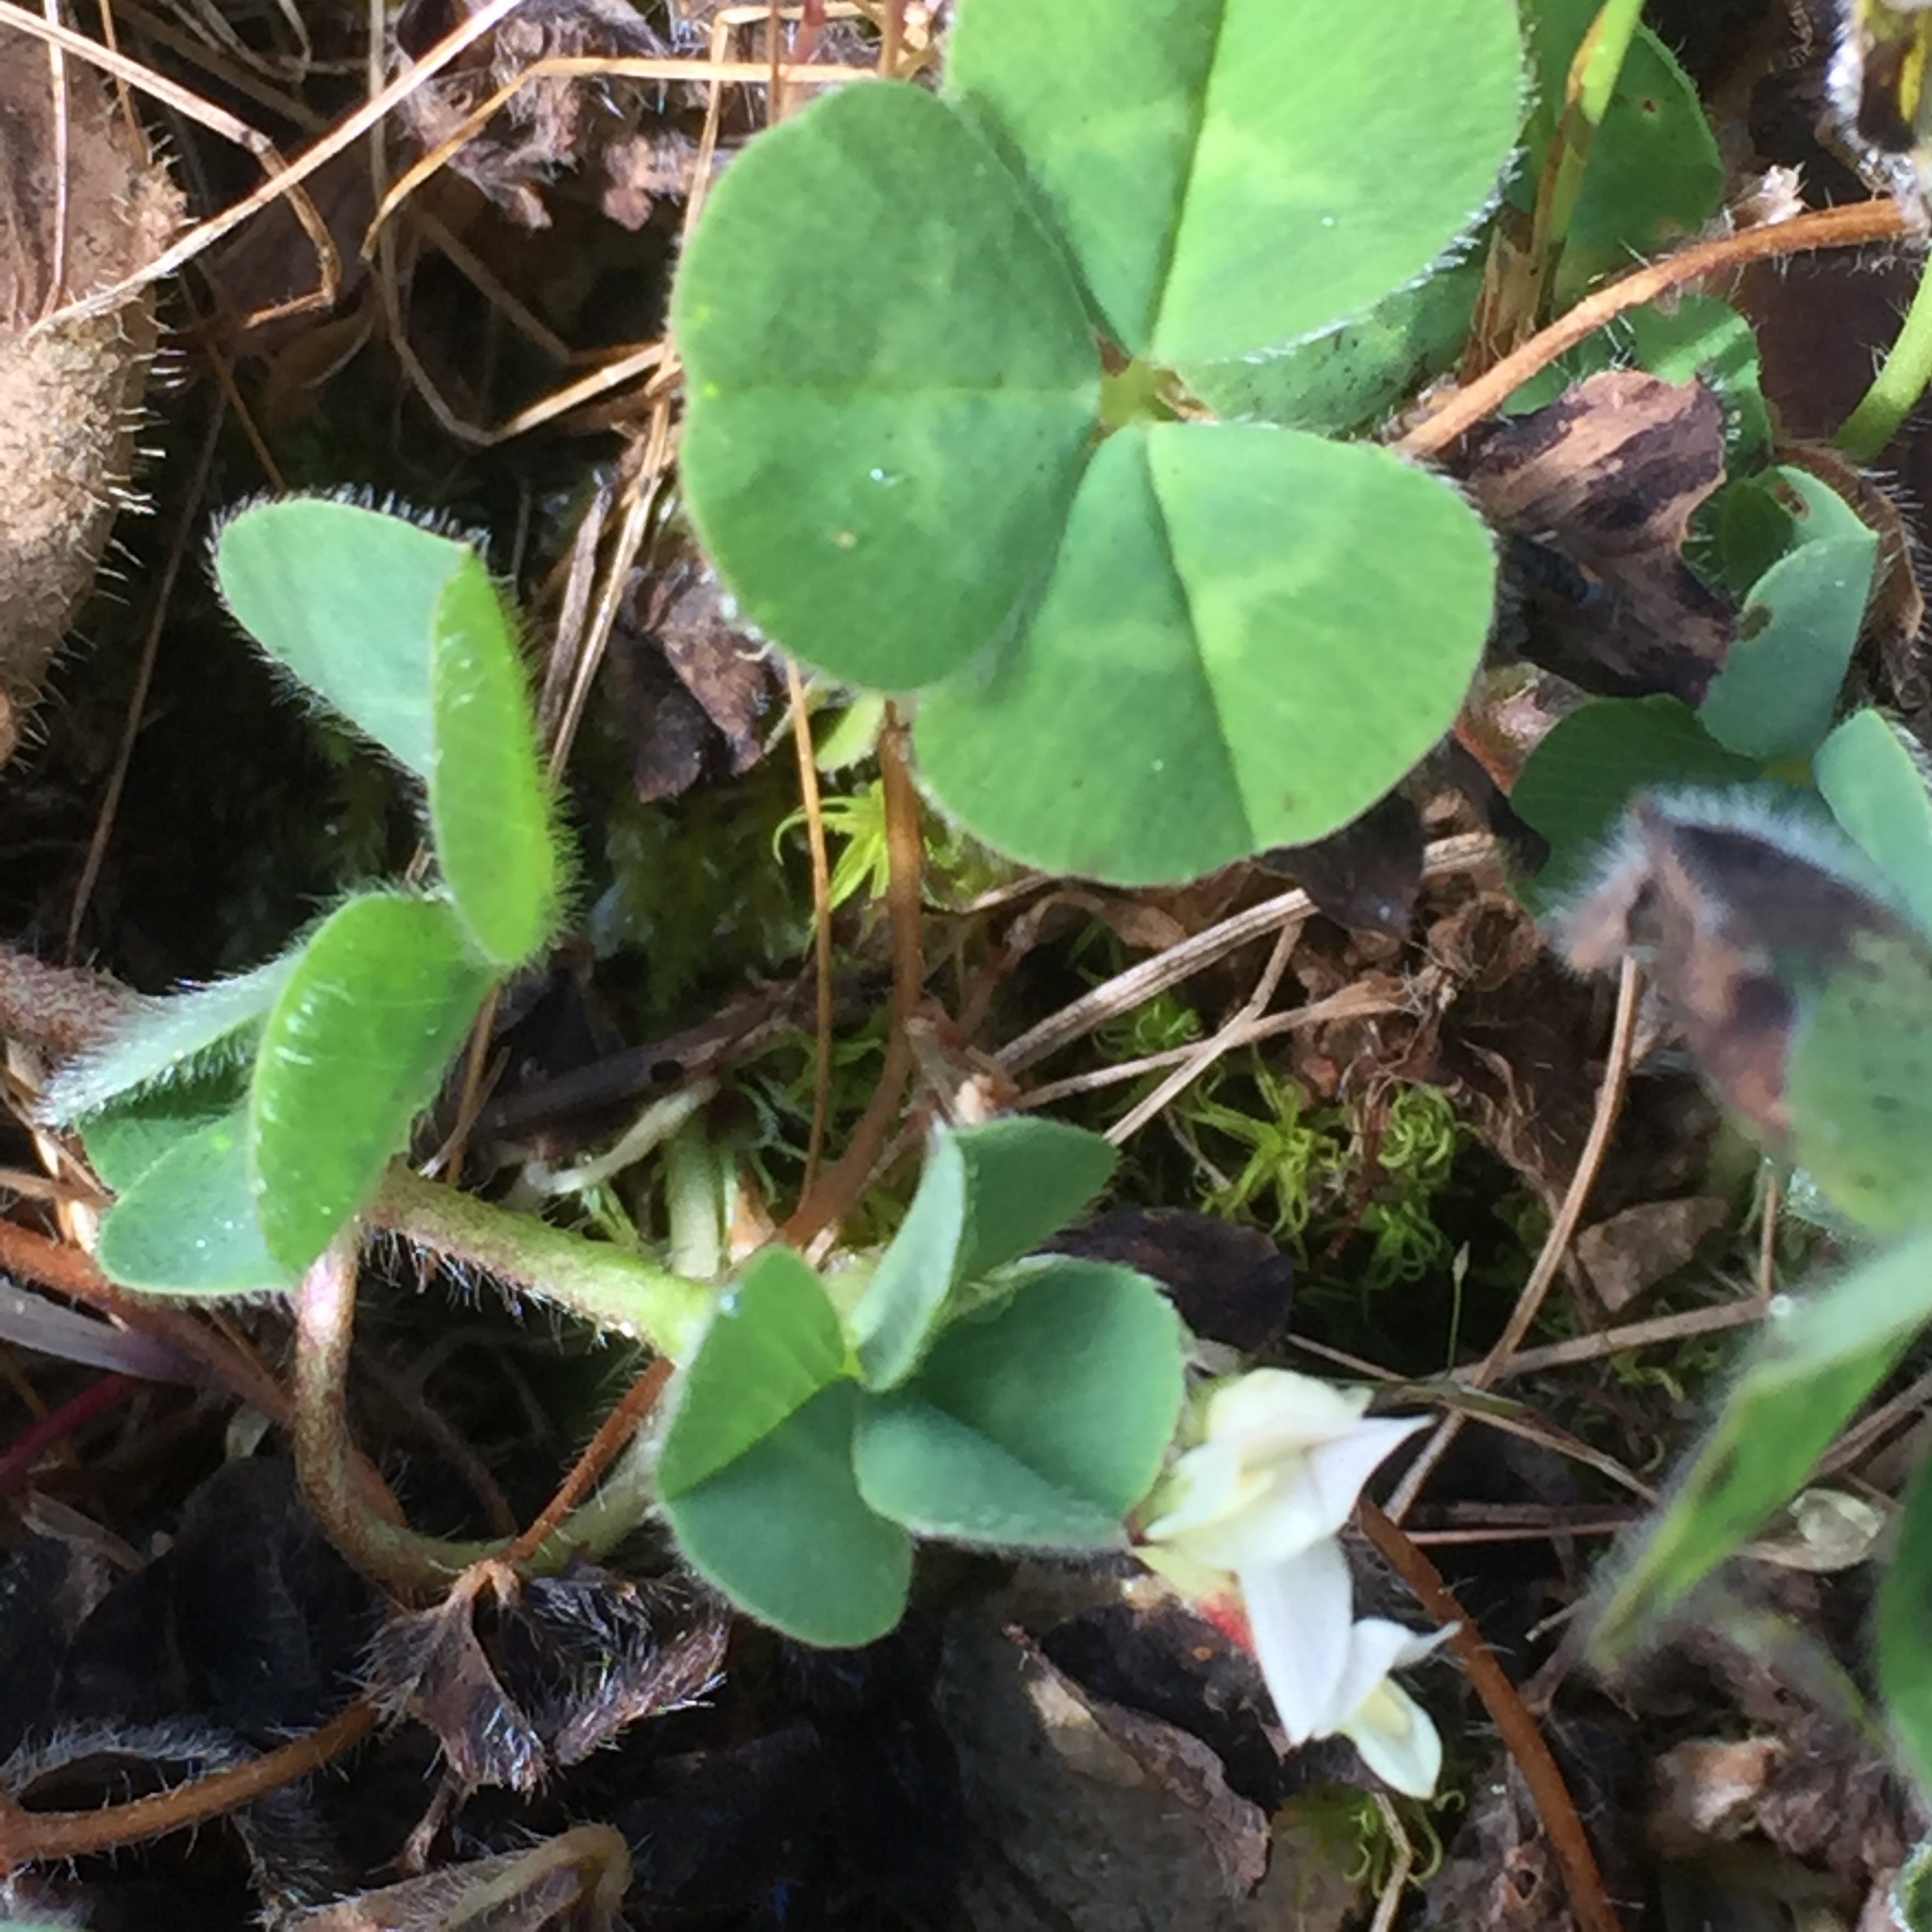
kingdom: Plantae
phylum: Tracheophyta
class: Magnoliopsida
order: Fabales
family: Fabaceae
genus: Trifolium
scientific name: Trifolium subterraneum
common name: Subterranean clover
